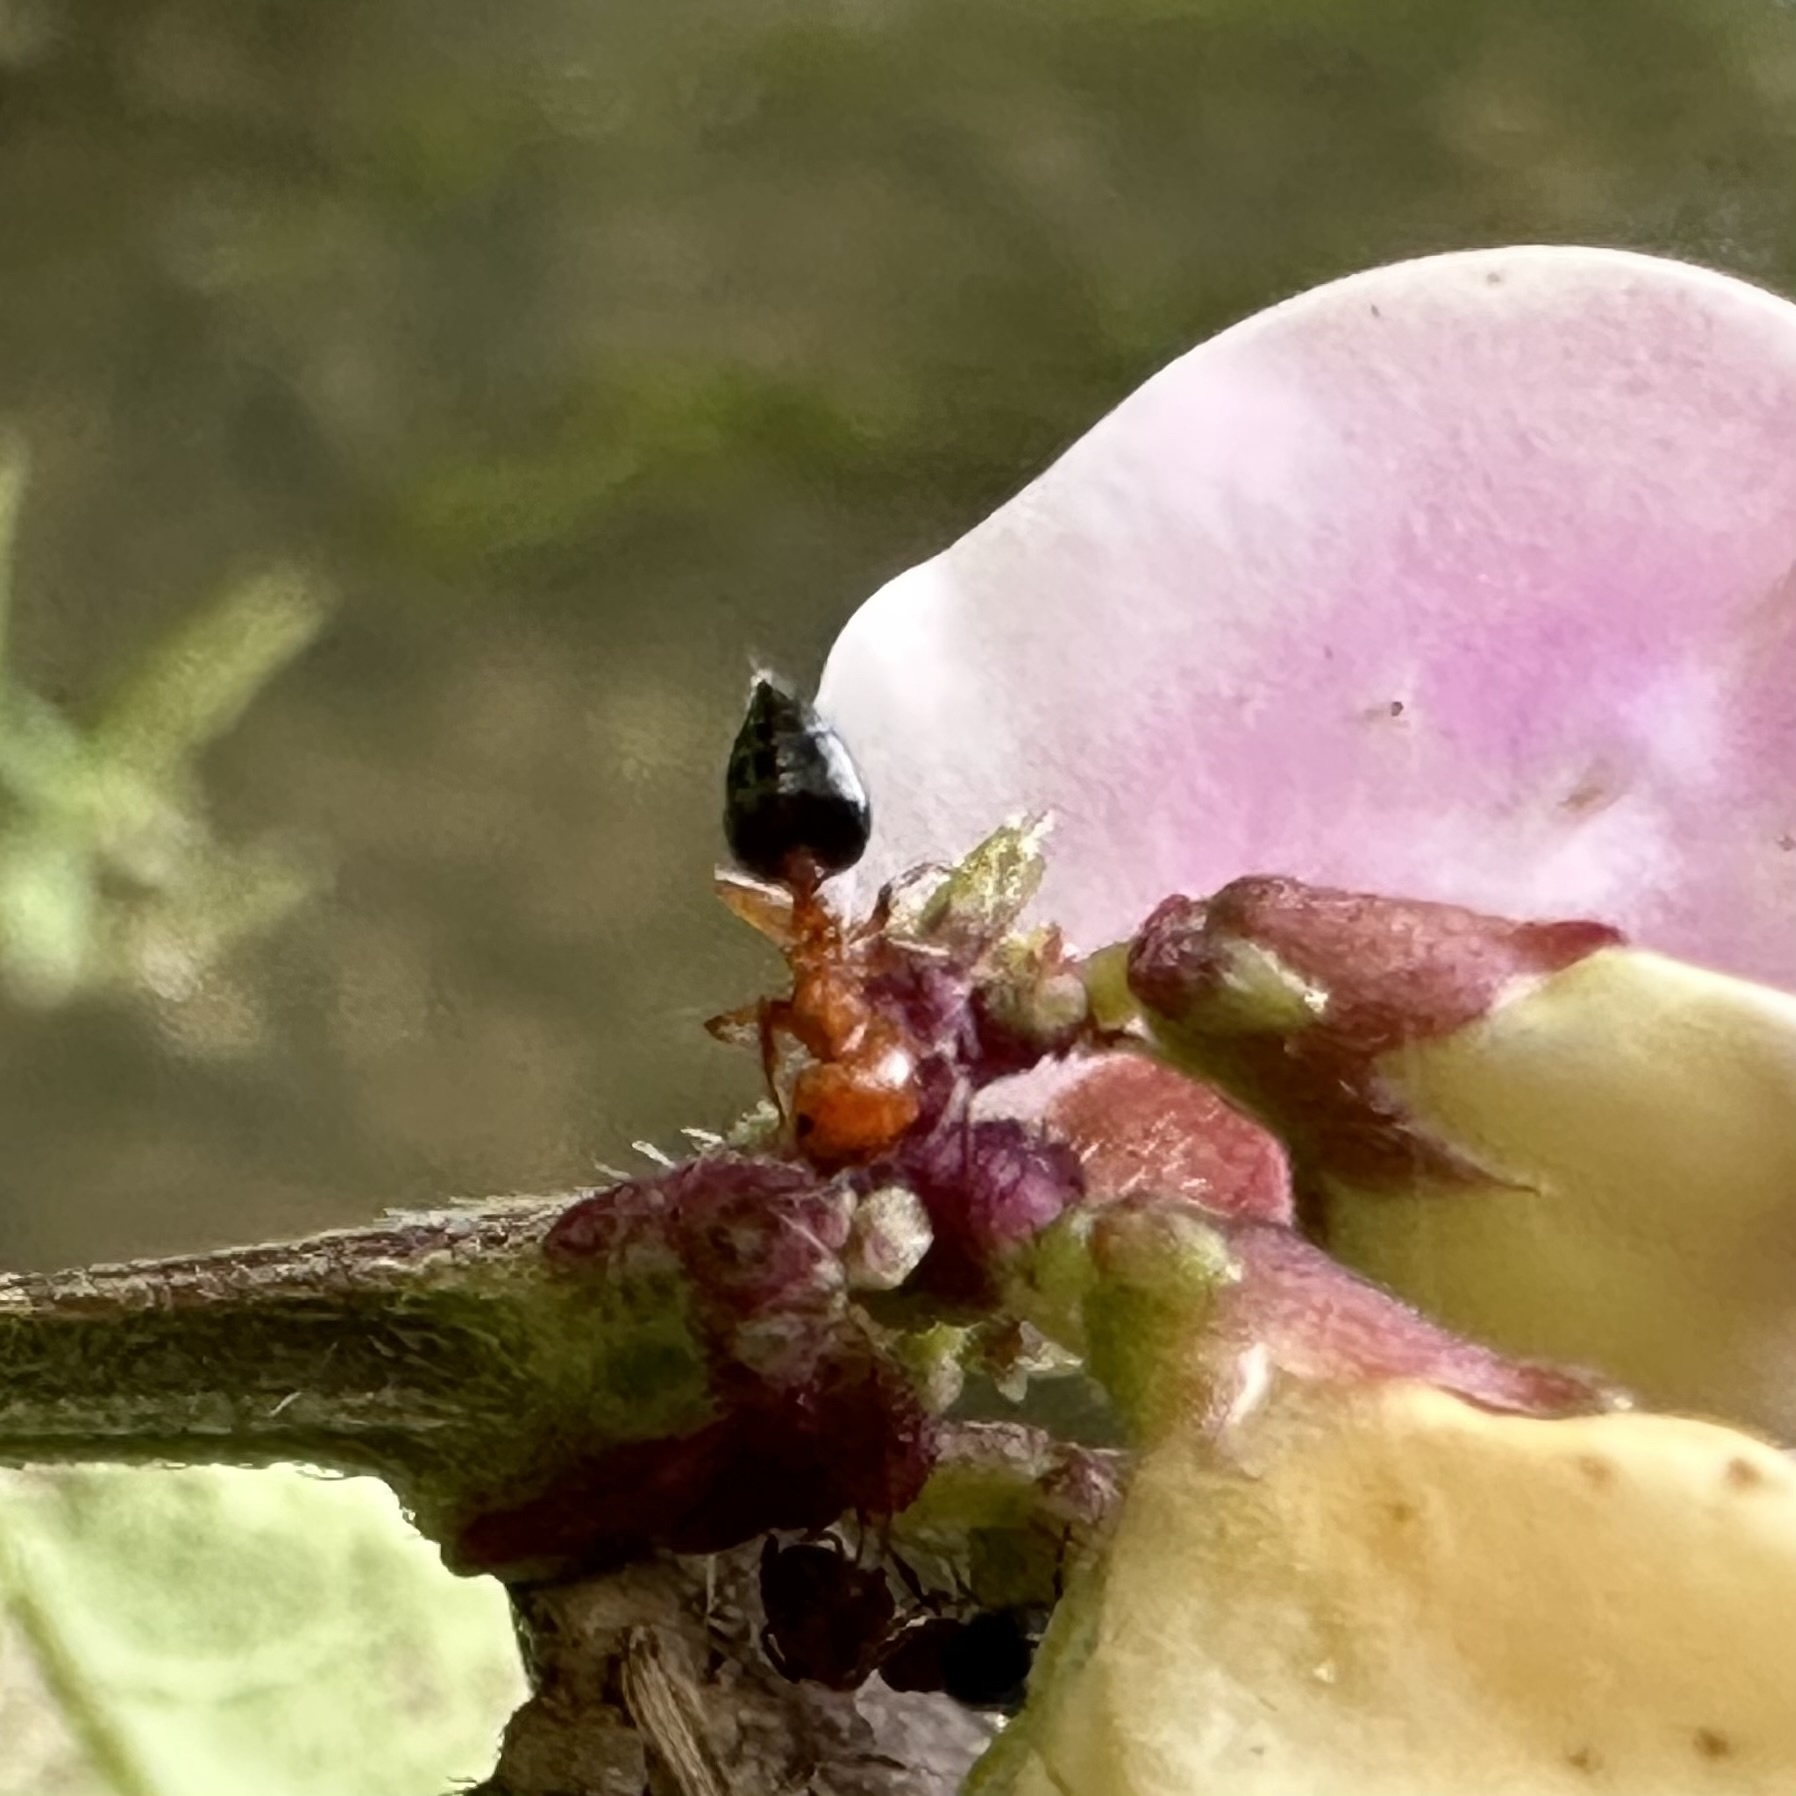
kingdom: Animalia
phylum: Arthropoda
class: Insecta
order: Hymenoptera
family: Formicidae
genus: Crematogaster
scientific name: Crematogaster laeviuscula
